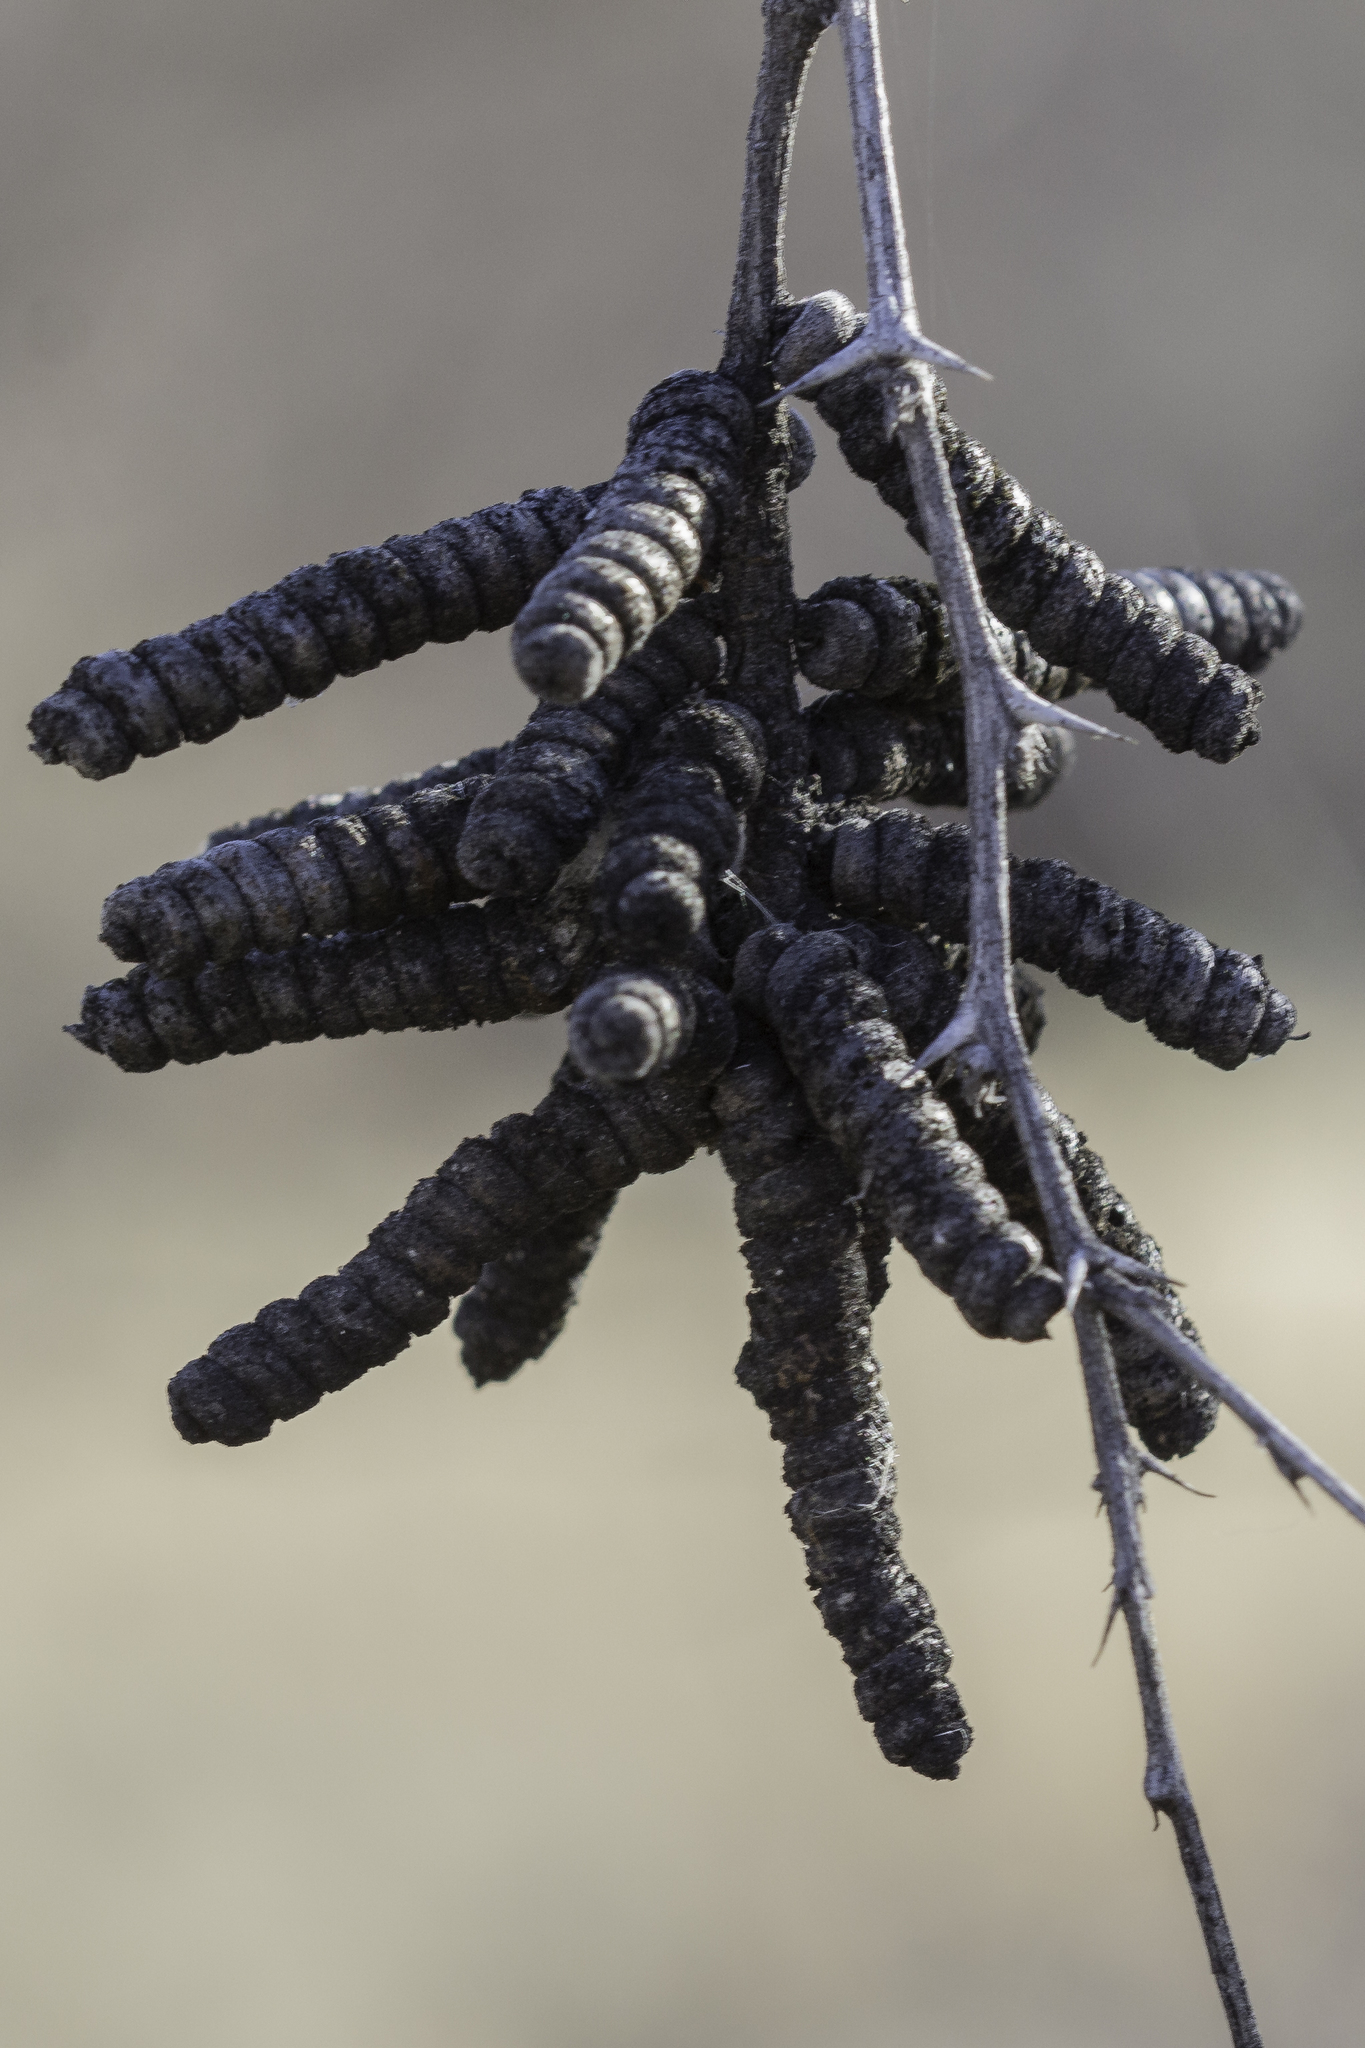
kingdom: Plantae
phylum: Tracheophyta
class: Magnoliopsida
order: Fabales
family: Fabaceae
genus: Prosopis
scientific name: Prosopis pubescens
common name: Screw-bean
